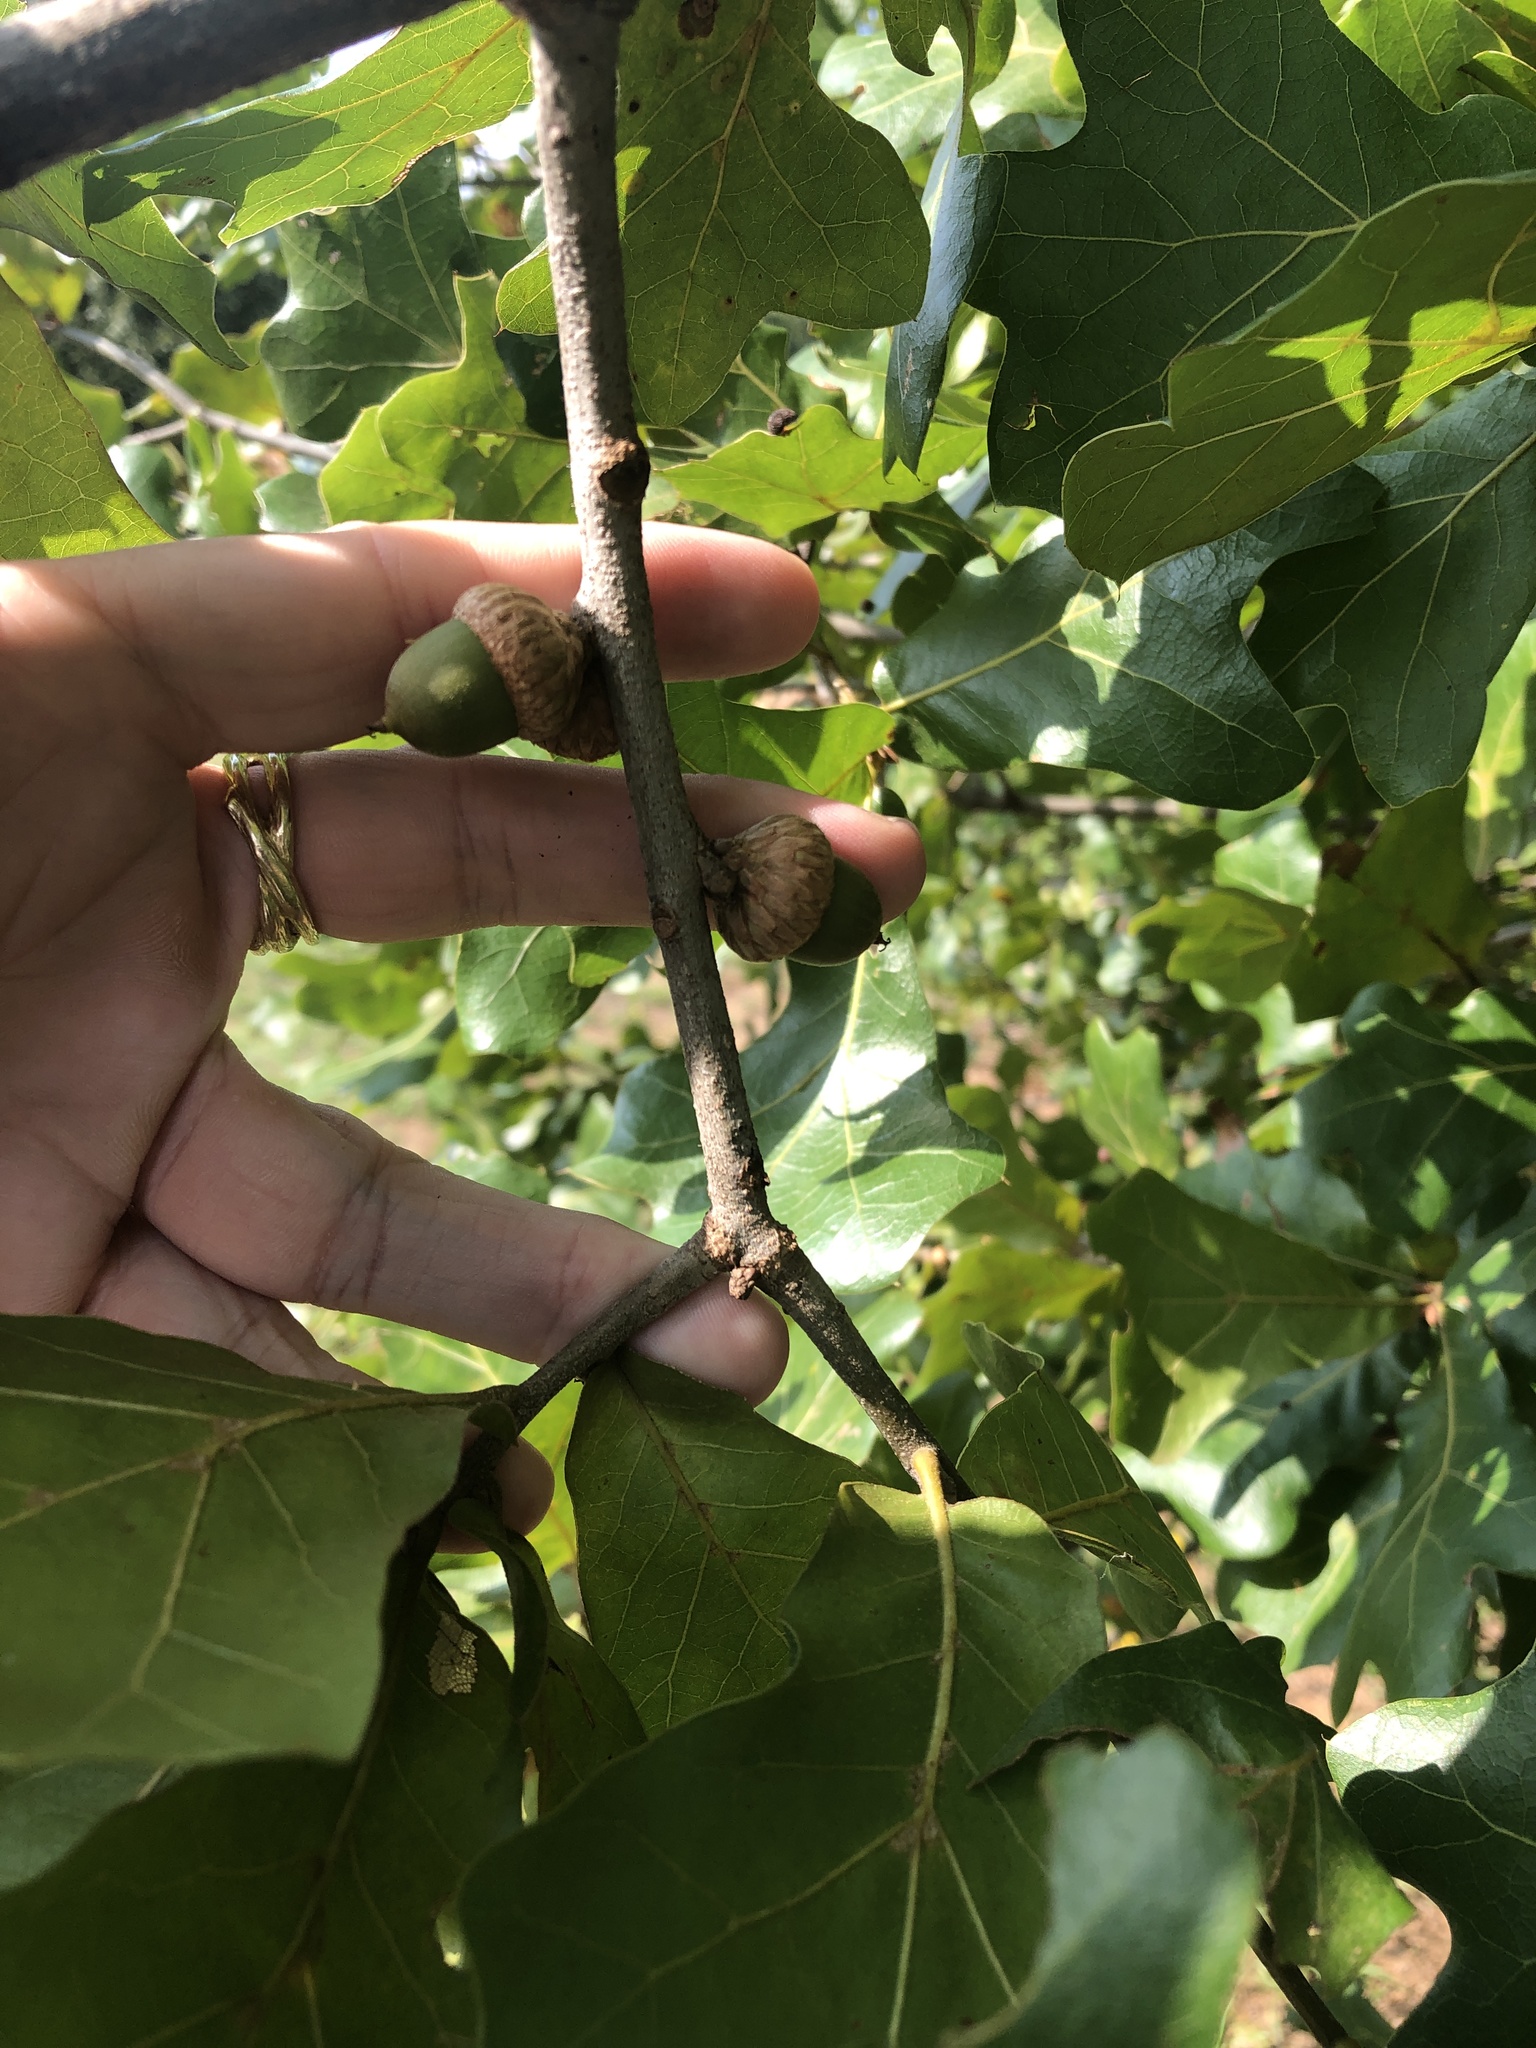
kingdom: Plantae
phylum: Tracheophyta
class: Magnoliopsida
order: Fagales
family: Fagaceae
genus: Quercus
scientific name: Quercus marilandica
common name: Blackjack oak
